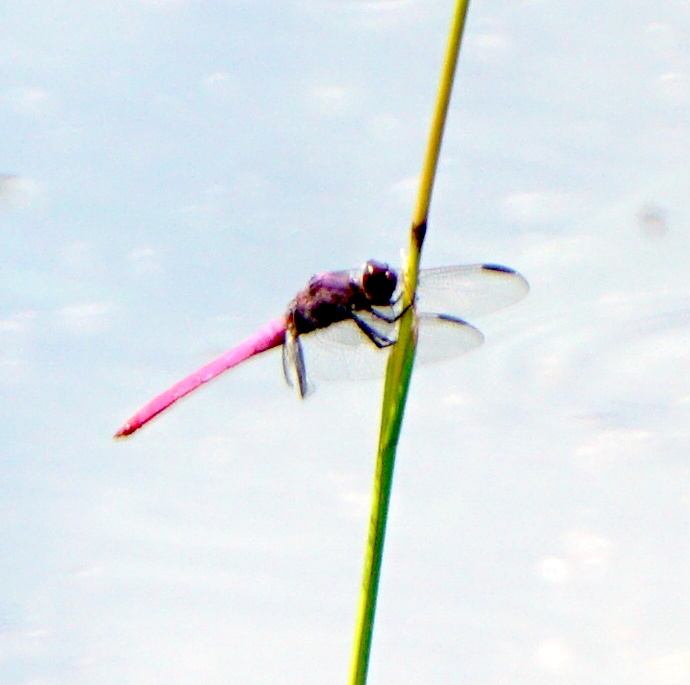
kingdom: Animalia
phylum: Arthropoda
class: Insecta
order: Odonata
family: Libellulidae
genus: Orthemis
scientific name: Orthemis ferruginea
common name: Roseate skimmer
